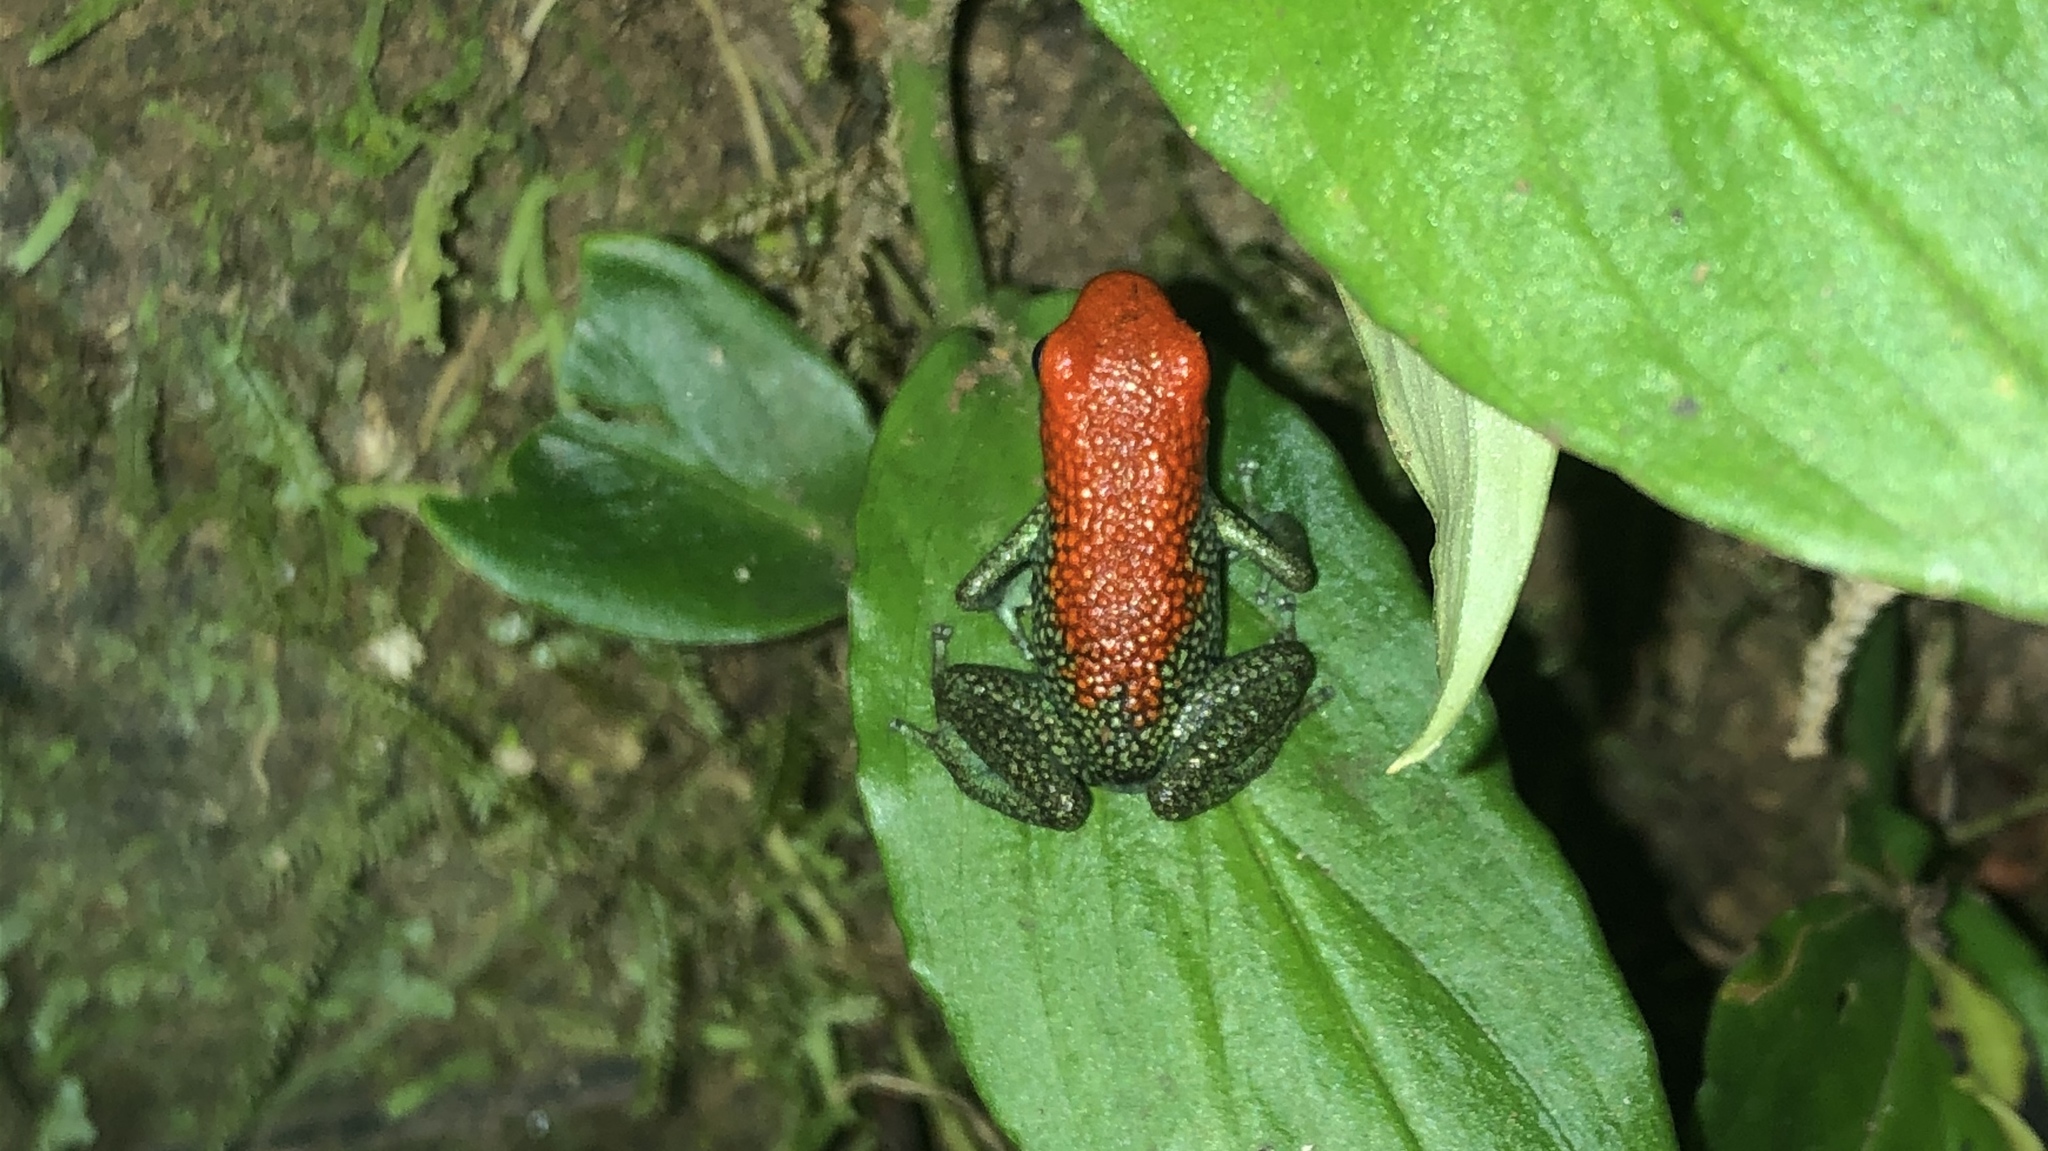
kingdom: Animalia
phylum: Chordata
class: Amphibia
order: Anura
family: Dendrobatidae
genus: Oophaga
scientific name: Oophaga granulifera
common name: Granular poison frog
